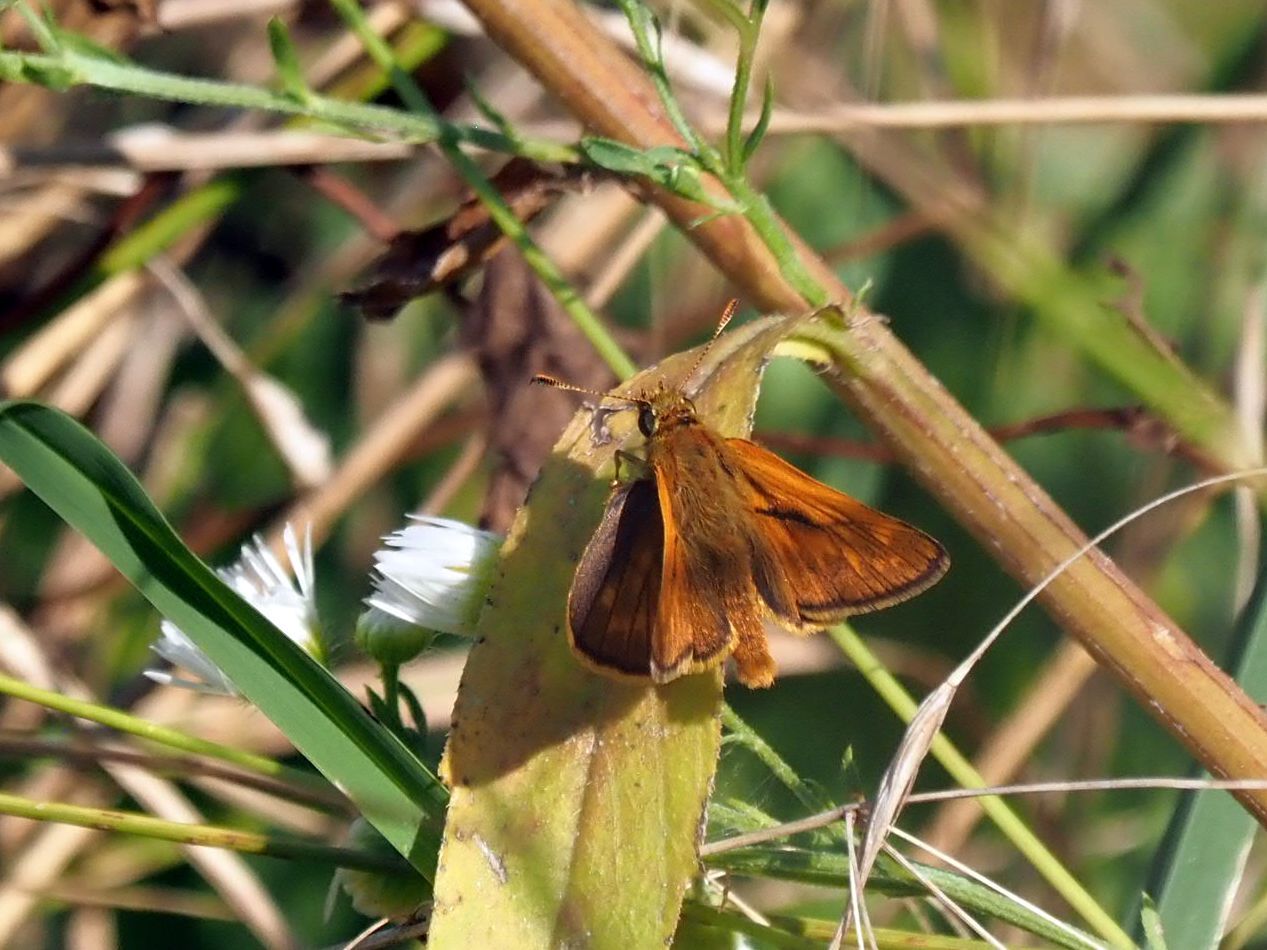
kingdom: Animalia
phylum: Arthropoda
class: Insecta
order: Lepidoptera
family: Hesperiidae
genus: Ochlodes
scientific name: Ochlodes venata
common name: Large skipper
